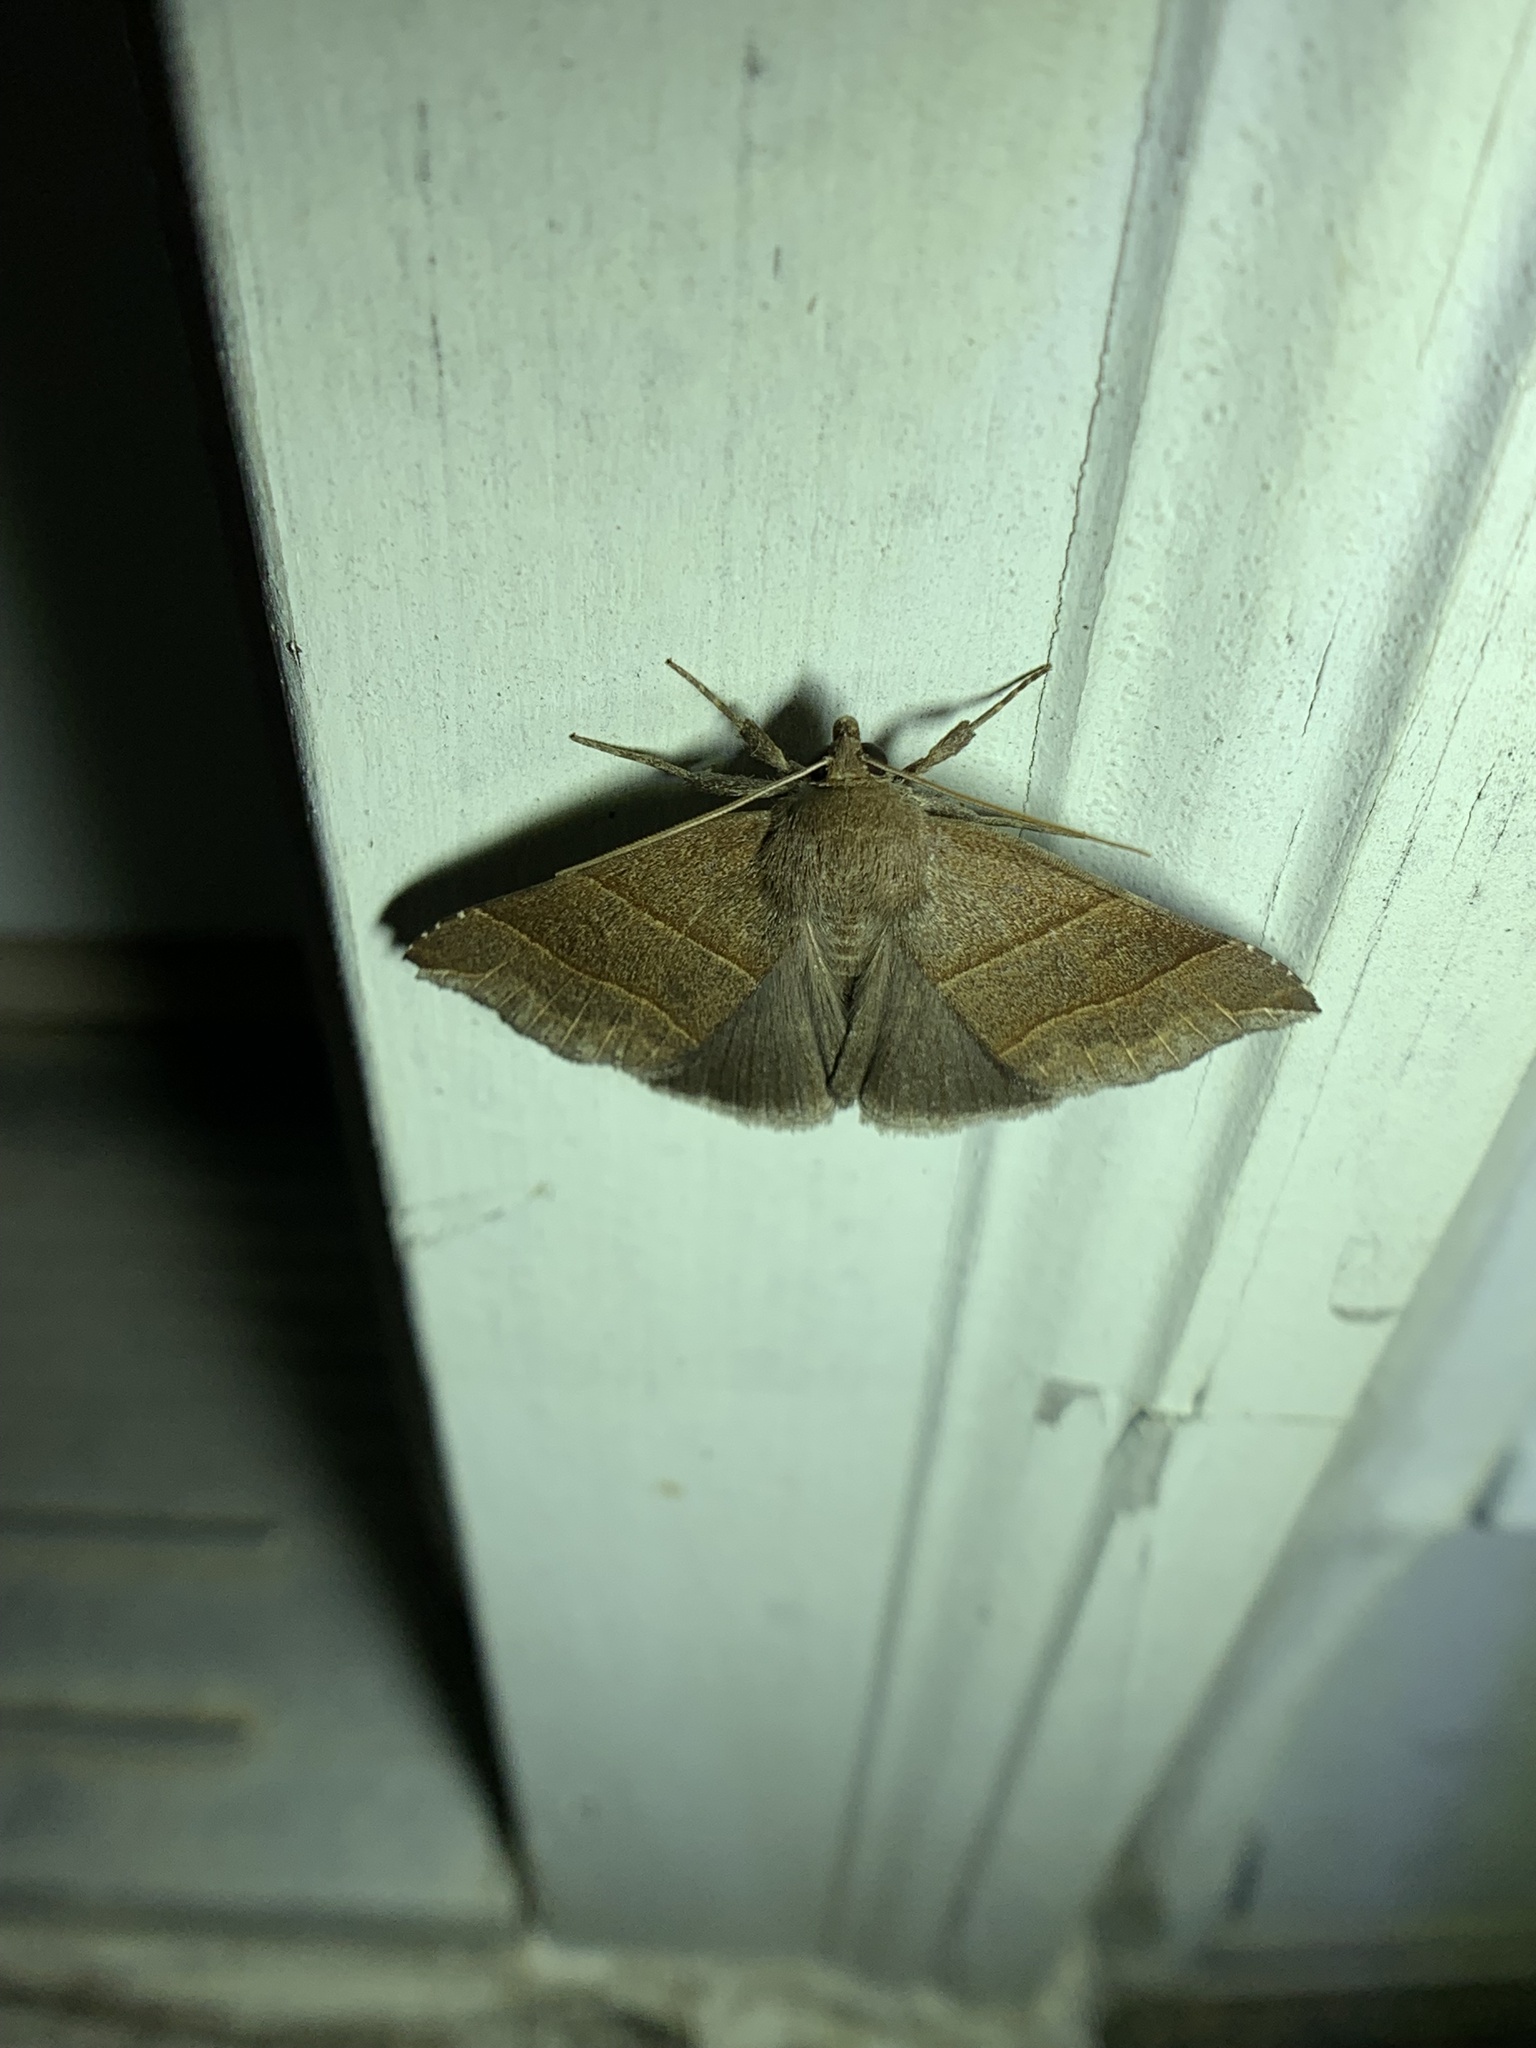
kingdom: Animalia
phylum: Arthropoda
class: Insecta
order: Lepidoptera
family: Erebidae
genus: Parallelia
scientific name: Parallelia bistriaris
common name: Maple looper moth
